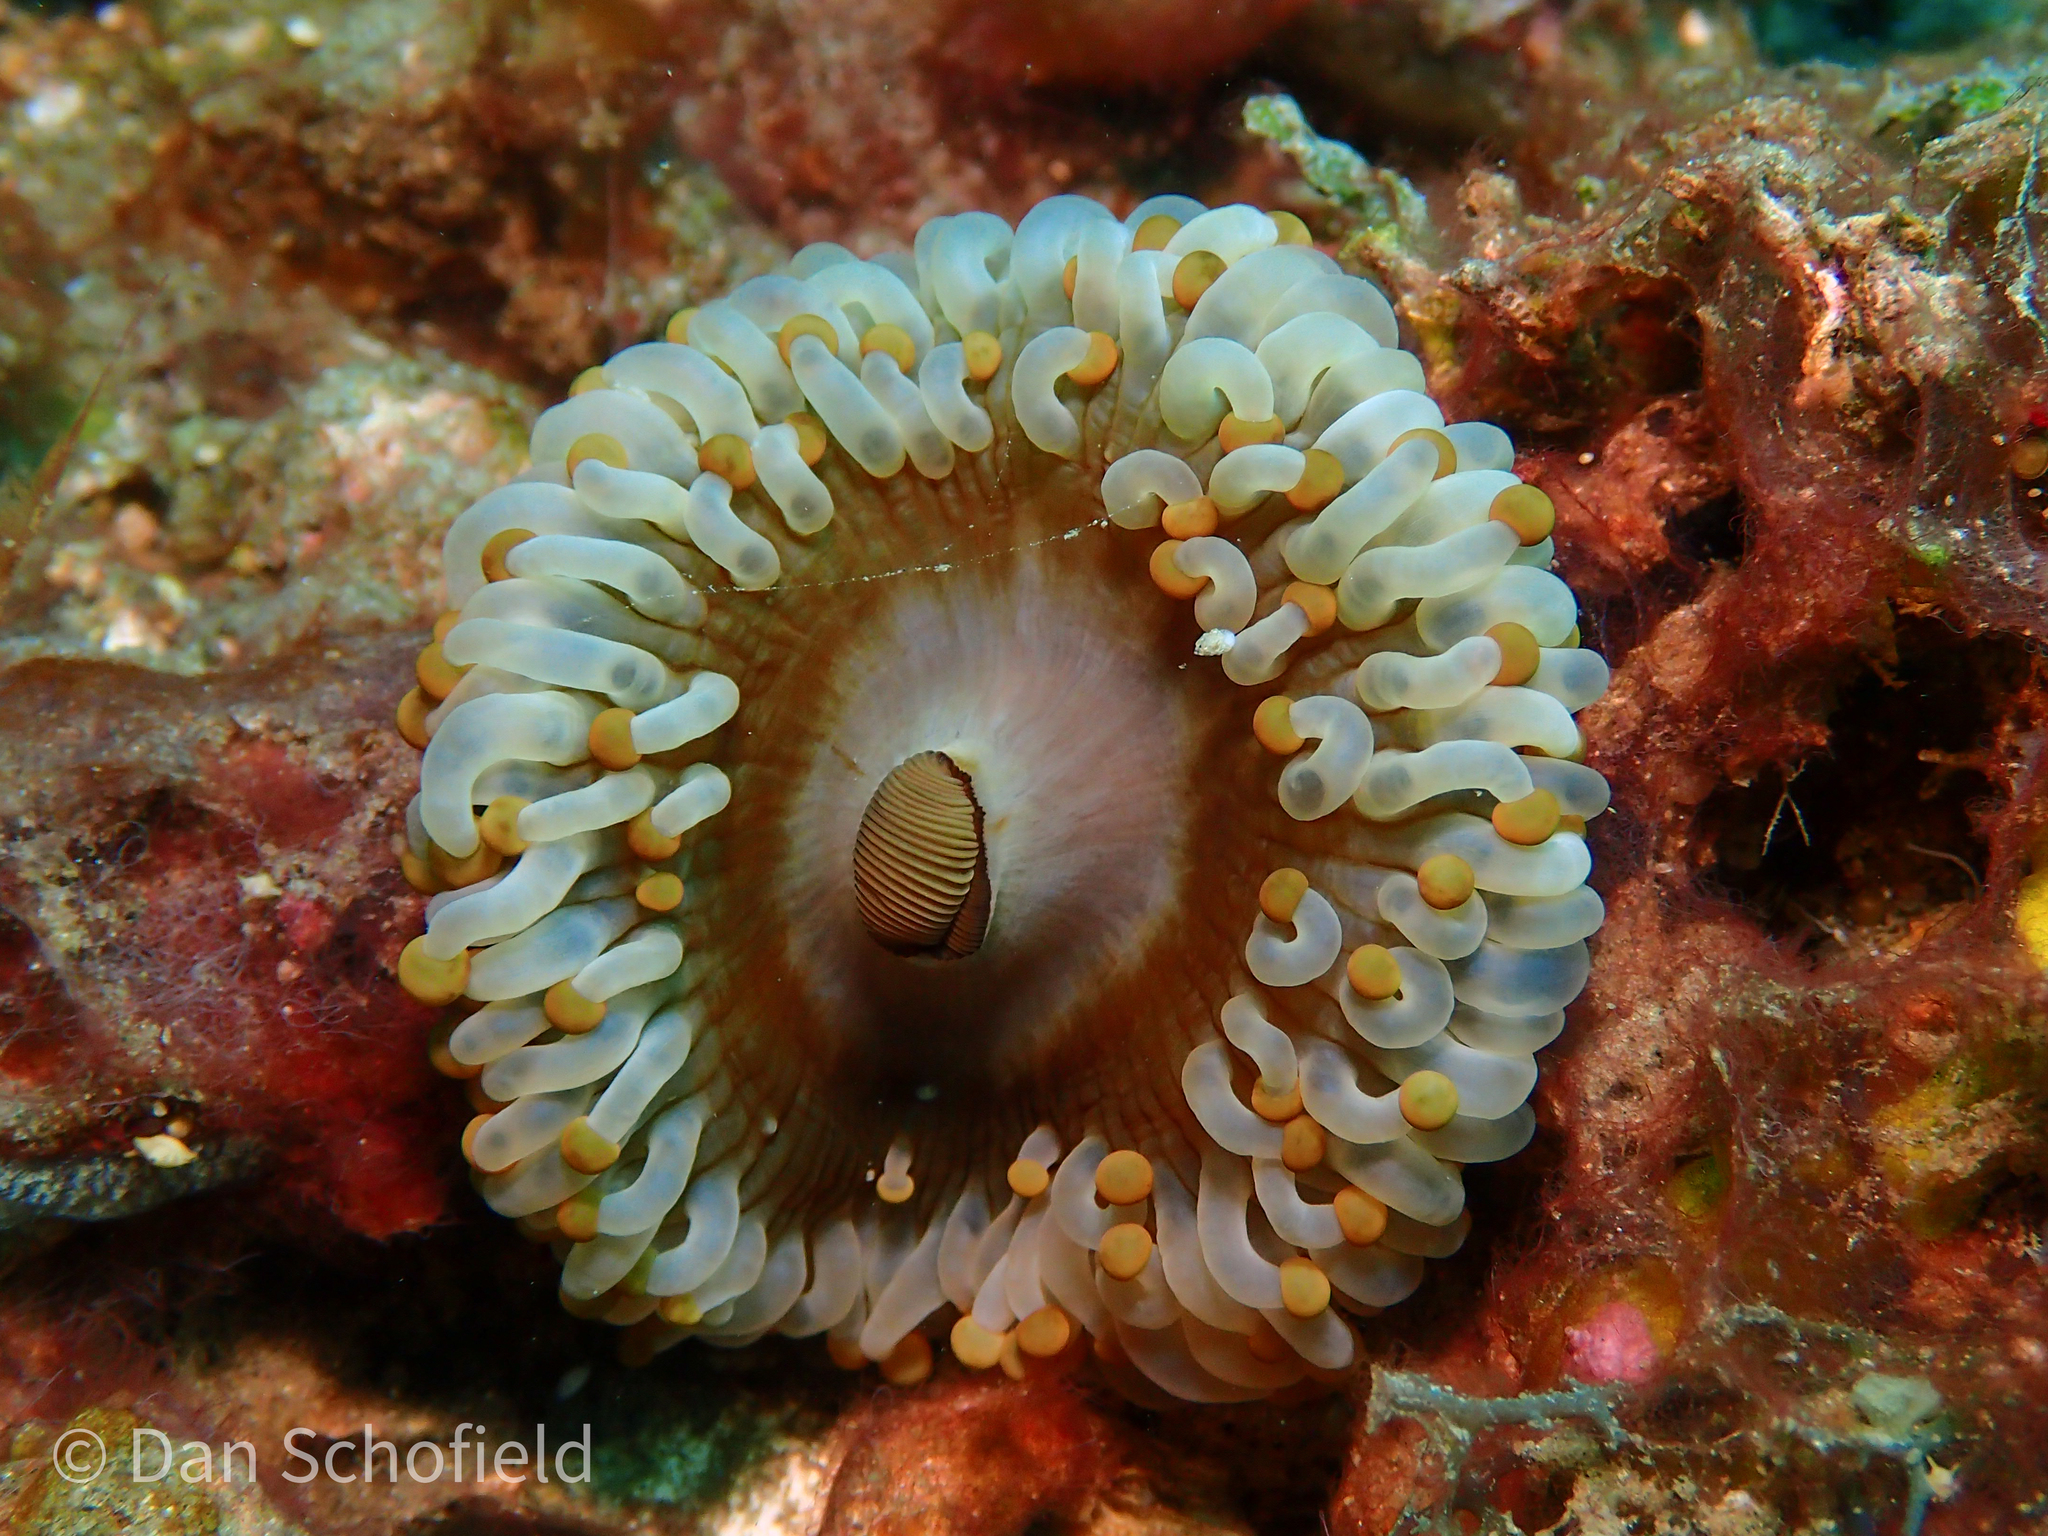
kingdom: Animalia
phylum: Cnidaria
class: Anthozoa
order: Corallimorpharia
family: Corallimorphidae
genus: Paracorynactis
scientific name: Paracorynactis hoplites
